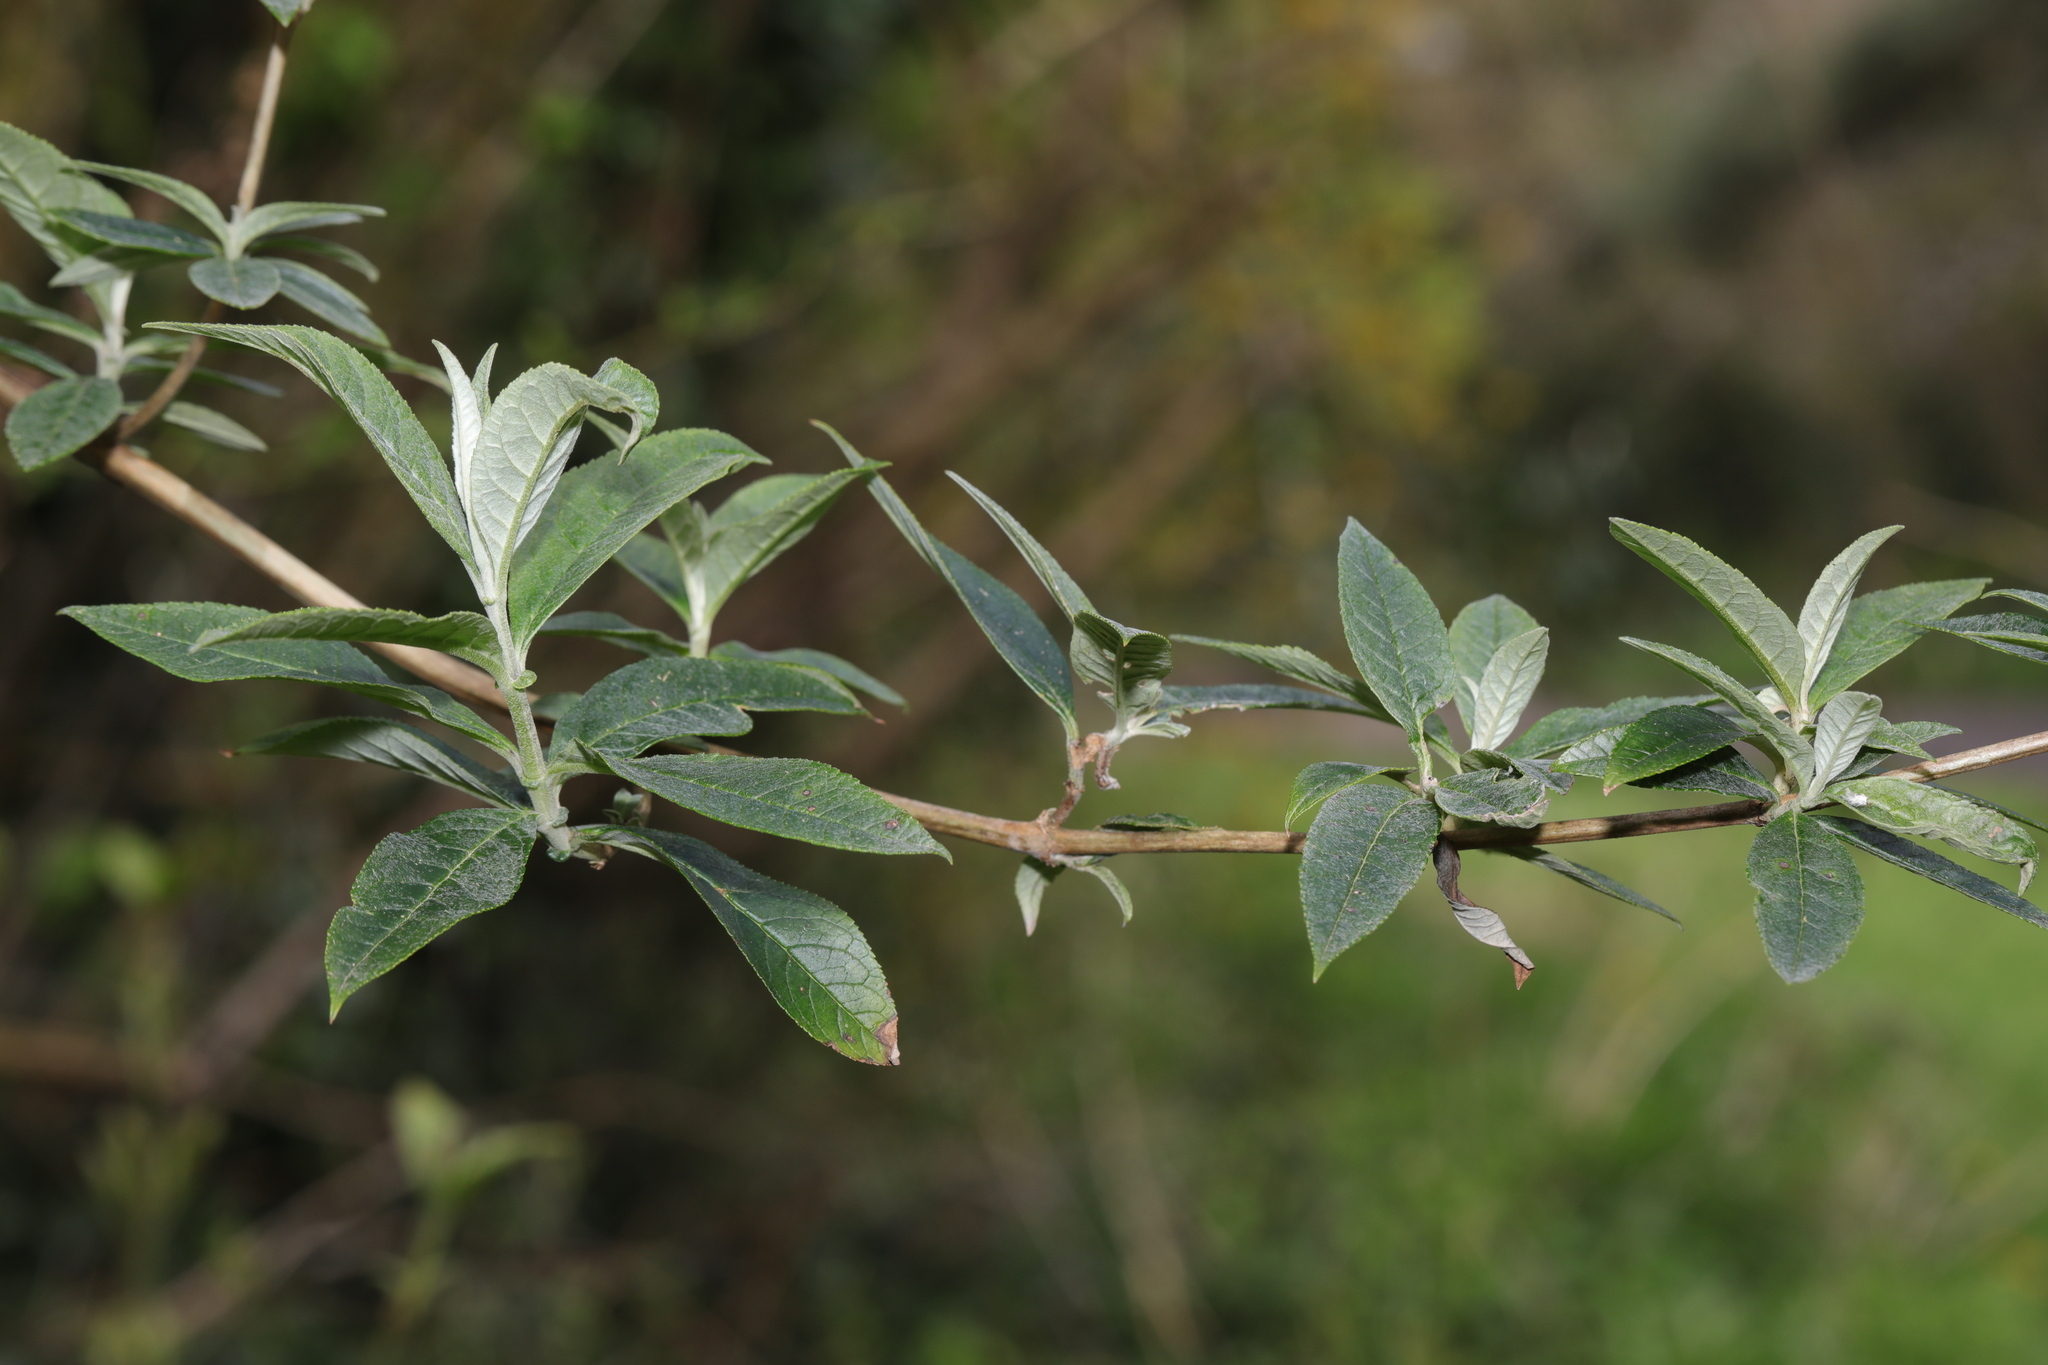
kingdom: Plantae
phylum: Tracheophyta
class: Magnoliopsida
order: Lamiales
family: Scrophulariaceae
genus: Buddleja
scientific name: Buddleja davidii
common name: Butterfly-bush
